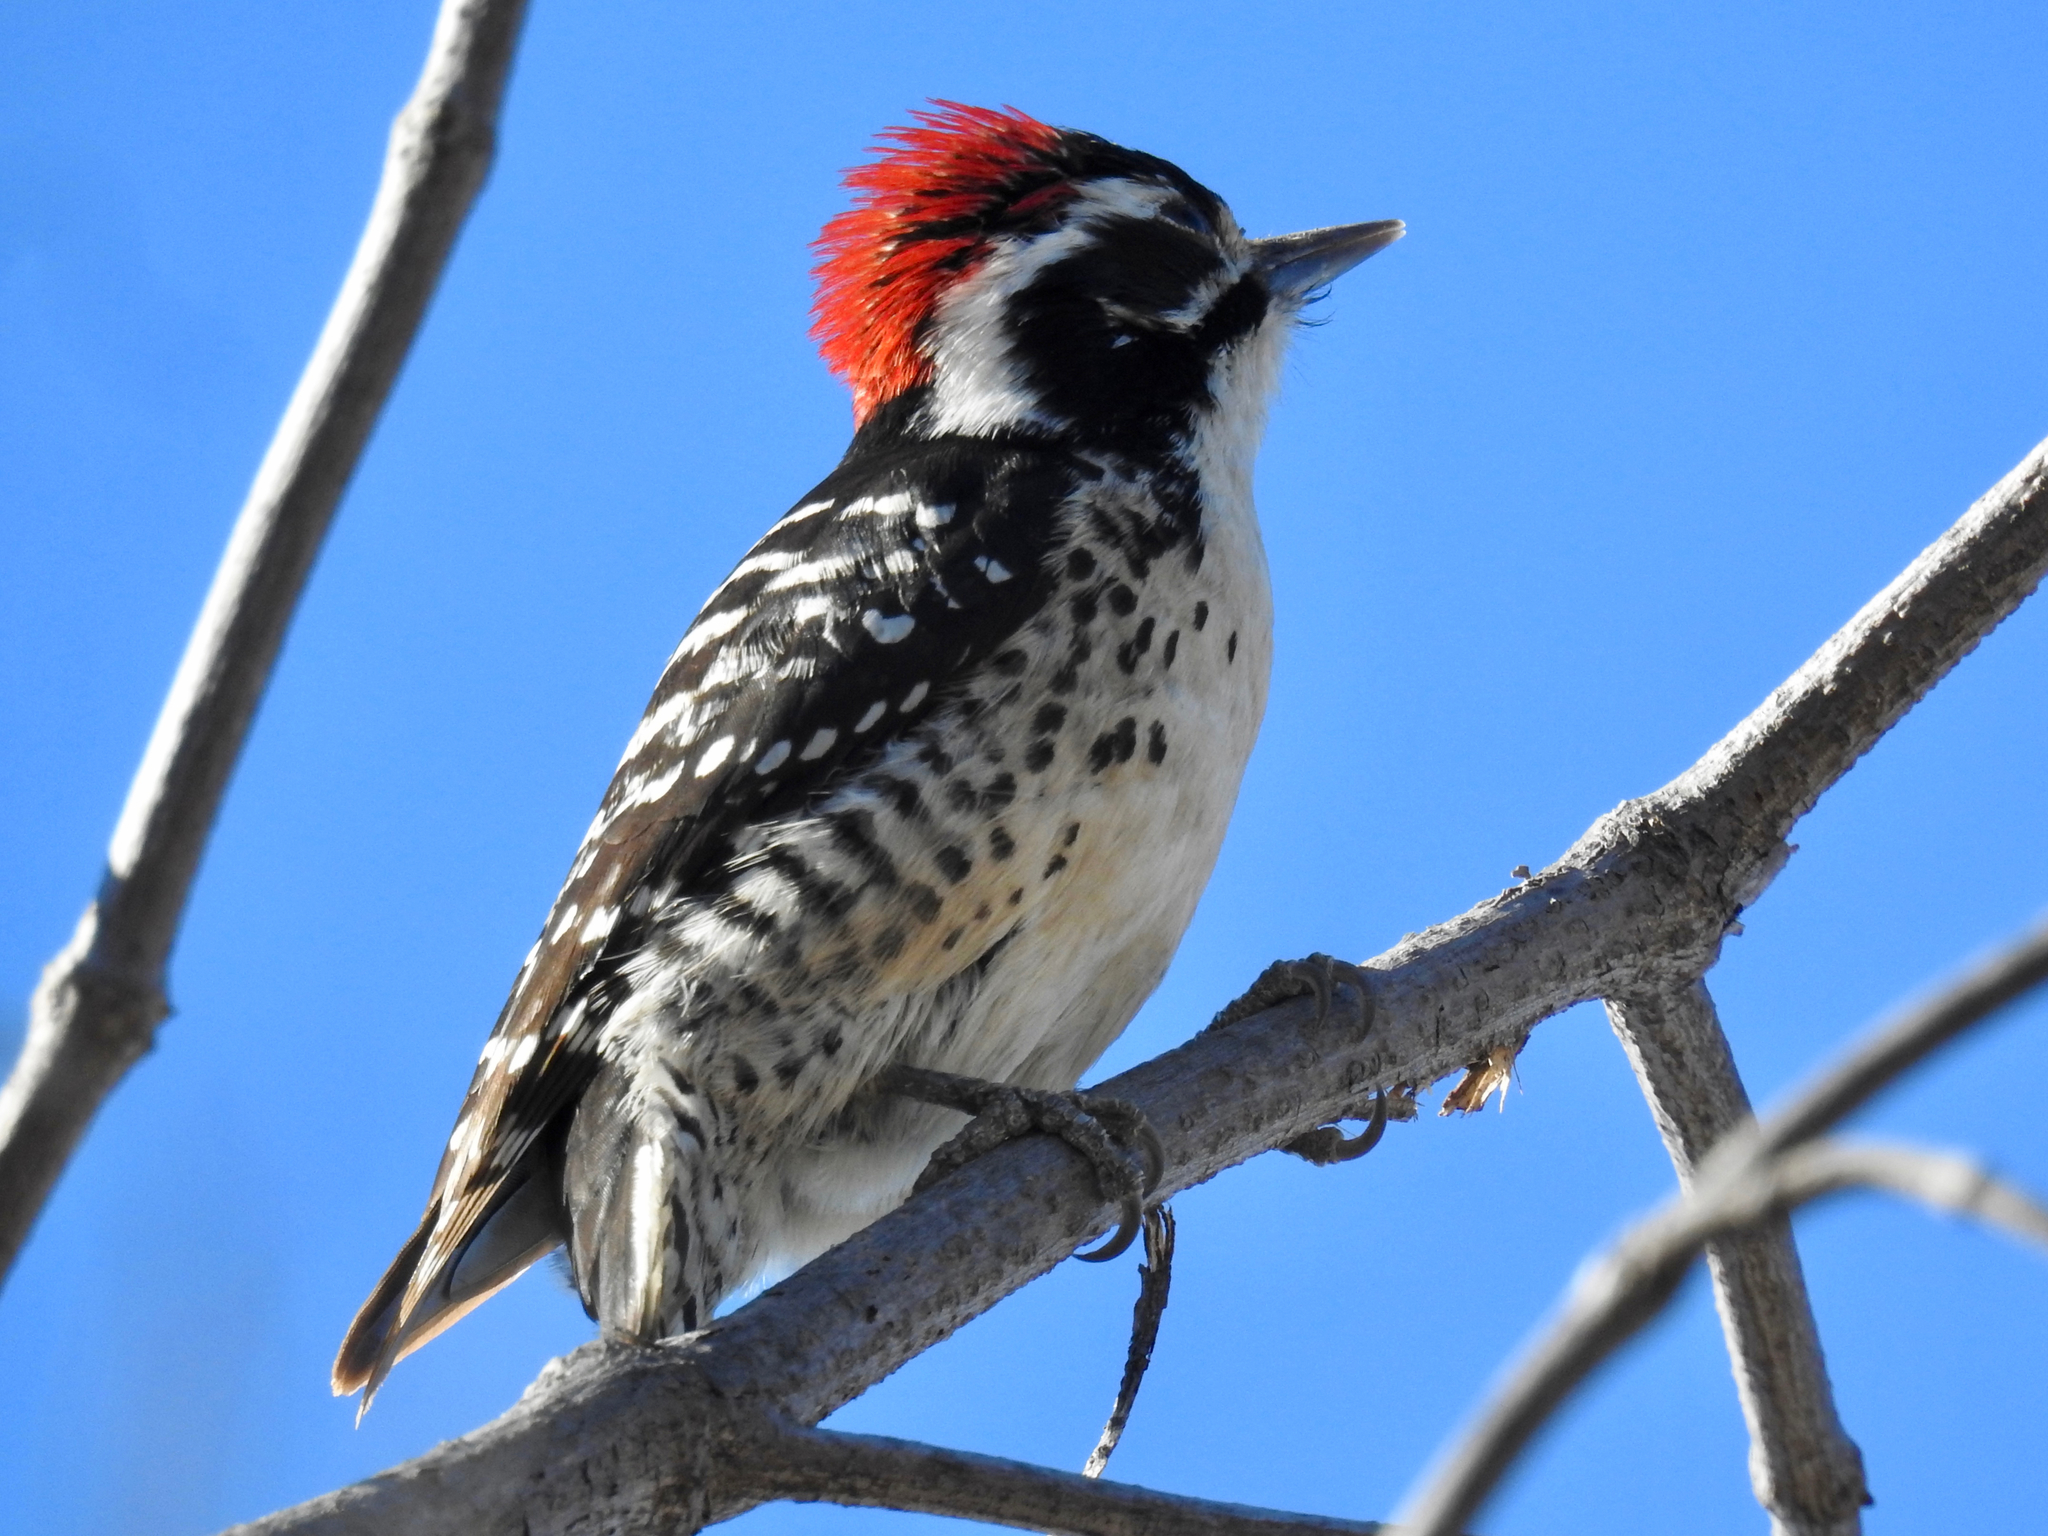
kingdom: Animalia
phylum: Chordata
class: Aves
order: Piciformes
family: Picidae
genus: Dryobates
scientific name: Dryobates nuttallii
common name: Nuttall's woodpecker
